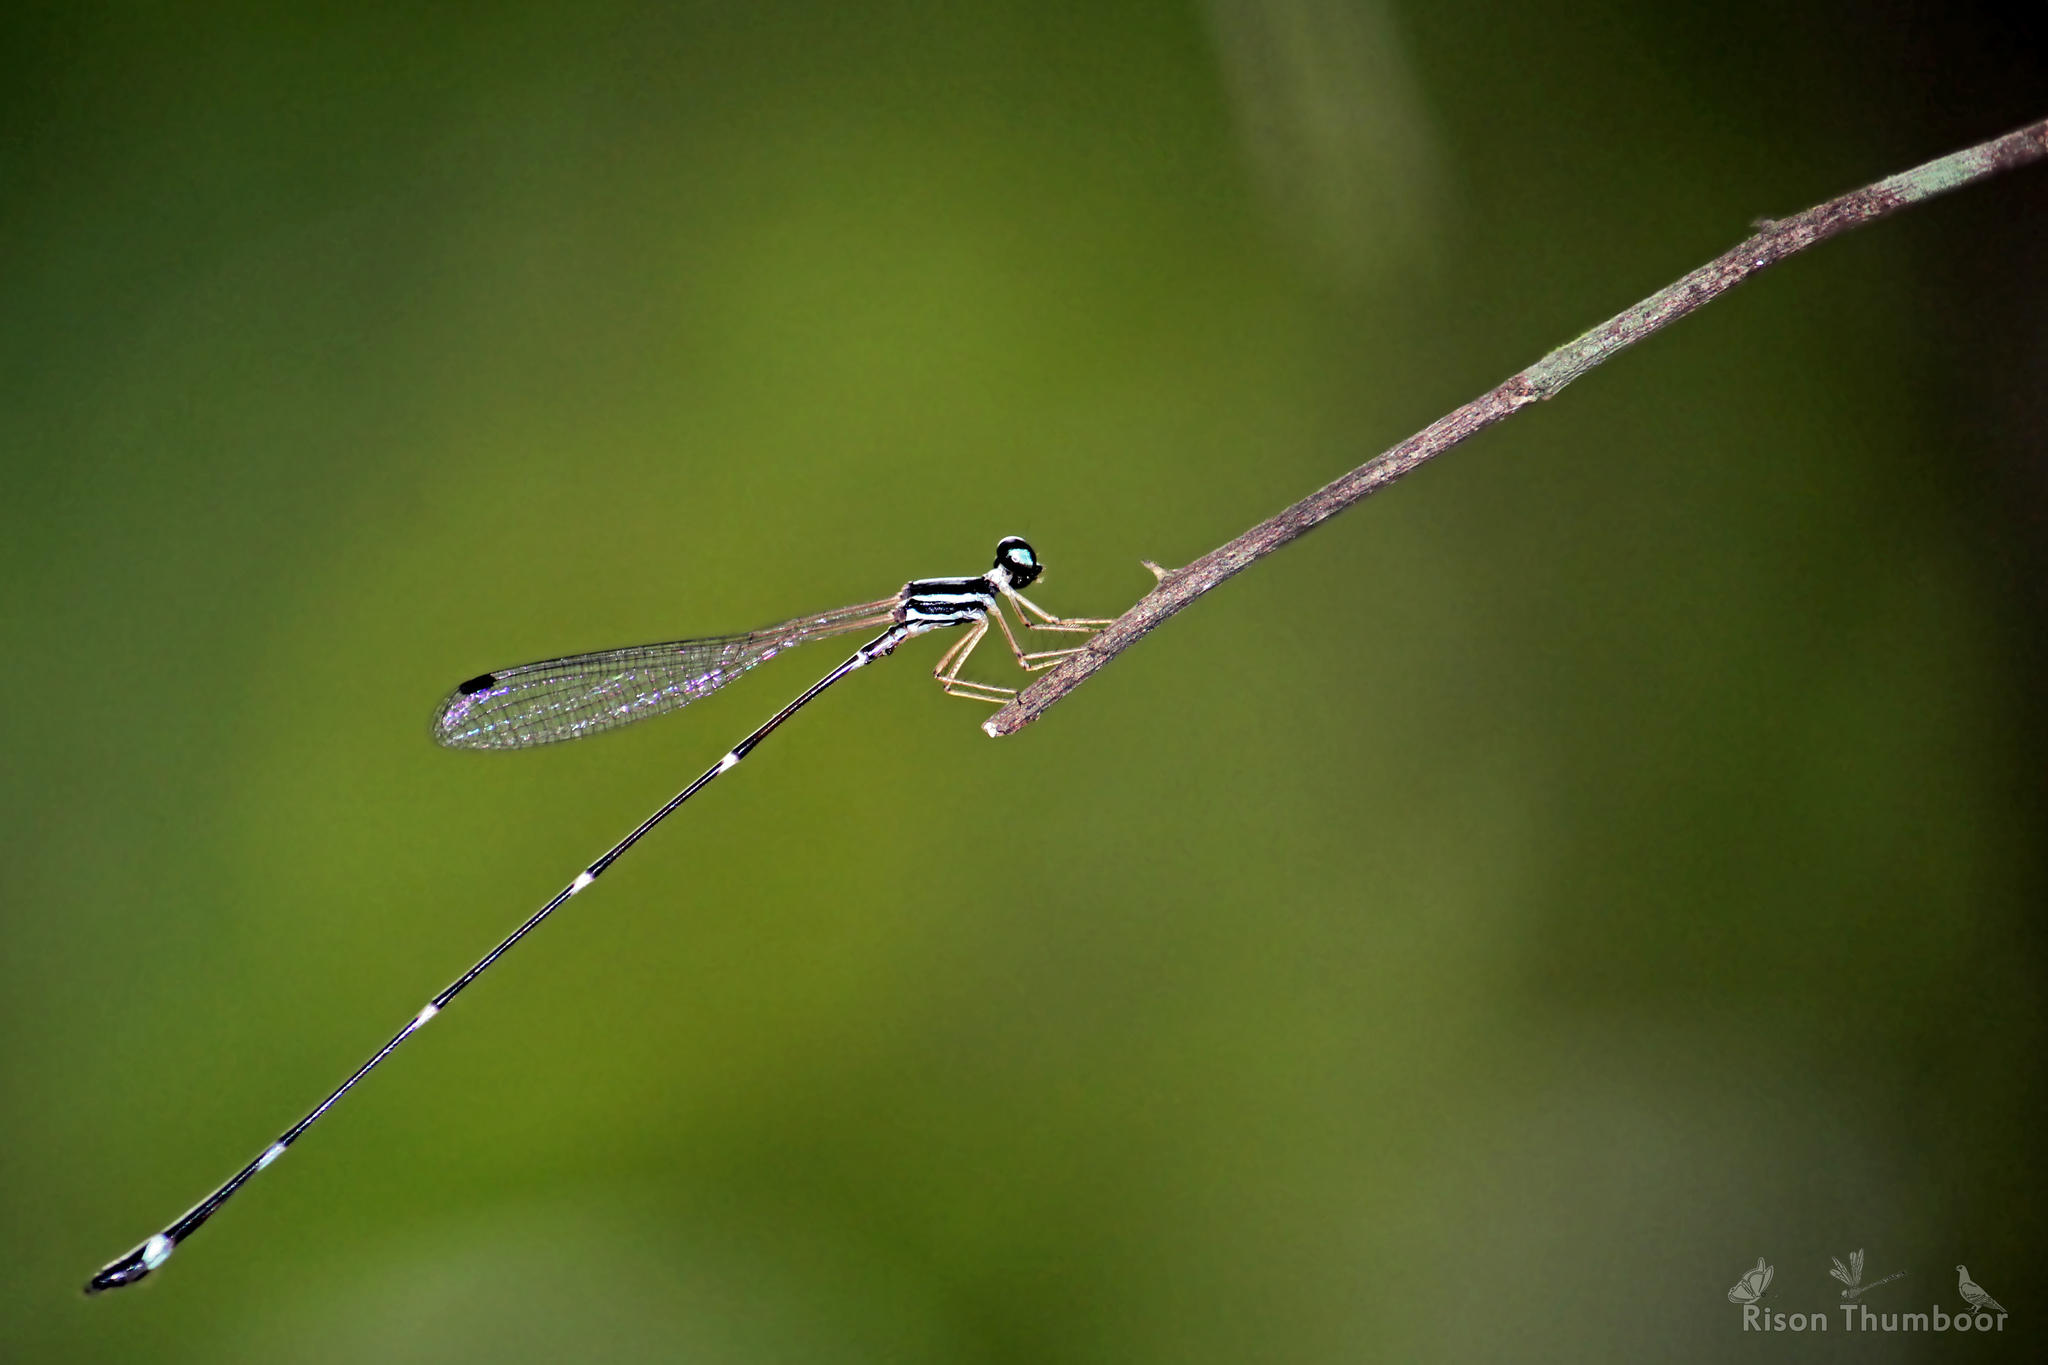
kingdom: Animalia
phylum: Arthropoda
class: Insecta
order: Odonata
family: Platystictidae
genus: Protosticta
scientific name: Protosticta gravelyi
